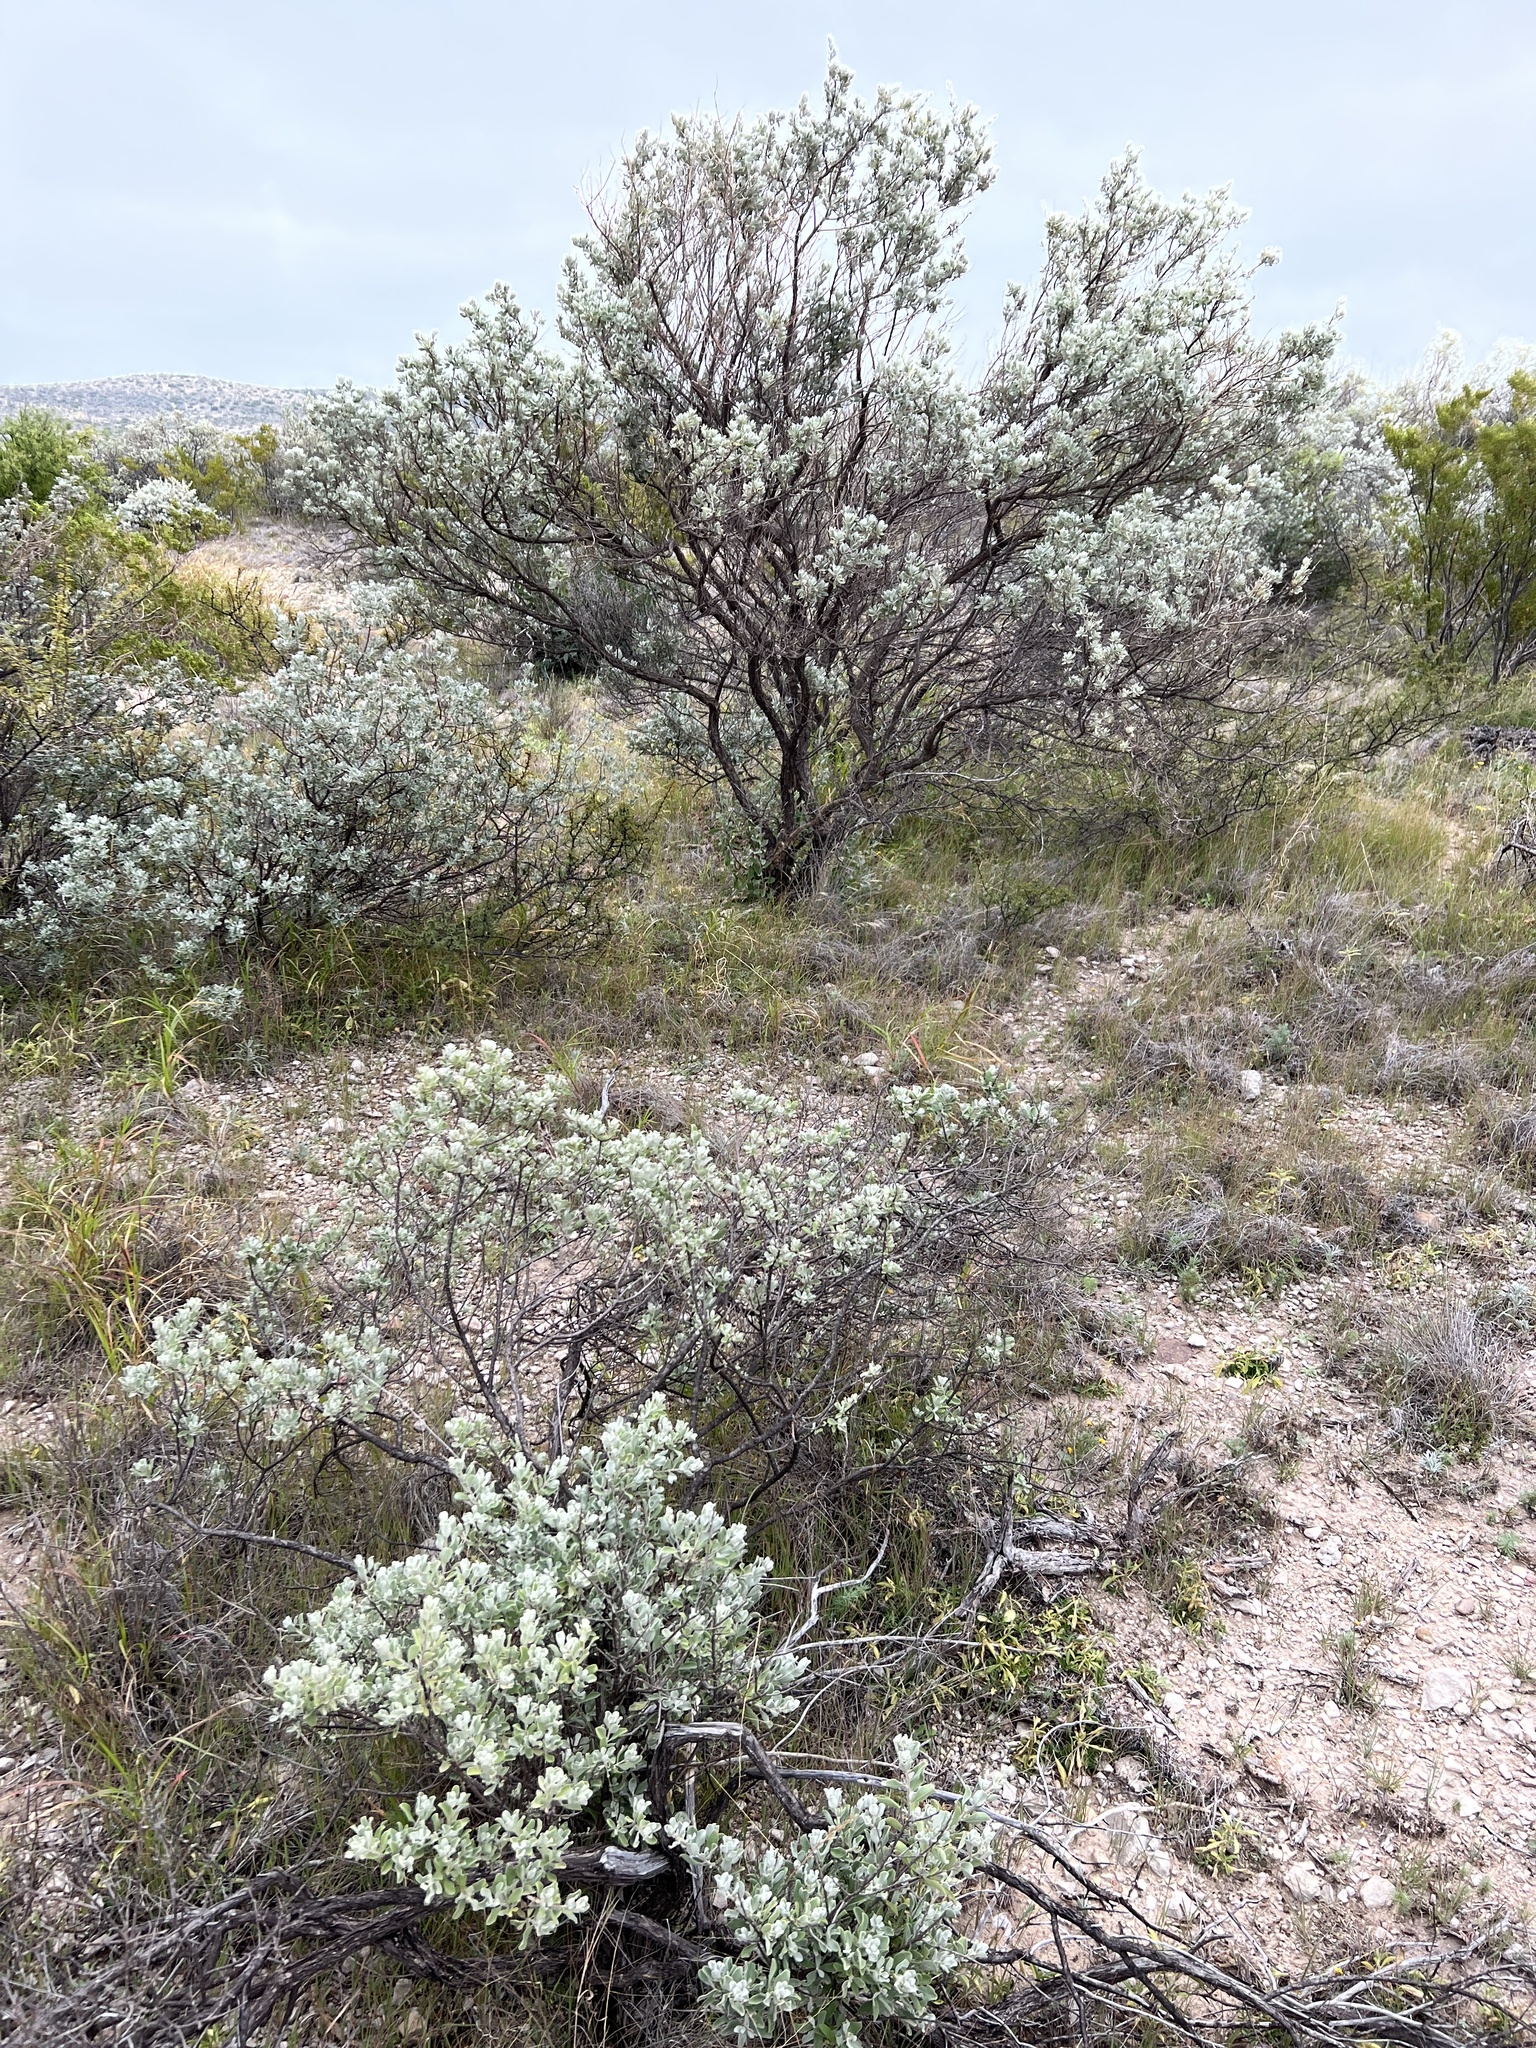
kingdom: Plantae
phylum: Tracheophyta
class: Magnoliopsida
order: Lamiales
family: Scrophulariaceae
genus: Leucophyllum
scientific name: Leucophyllum frutescens
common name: Texas silverleaf
